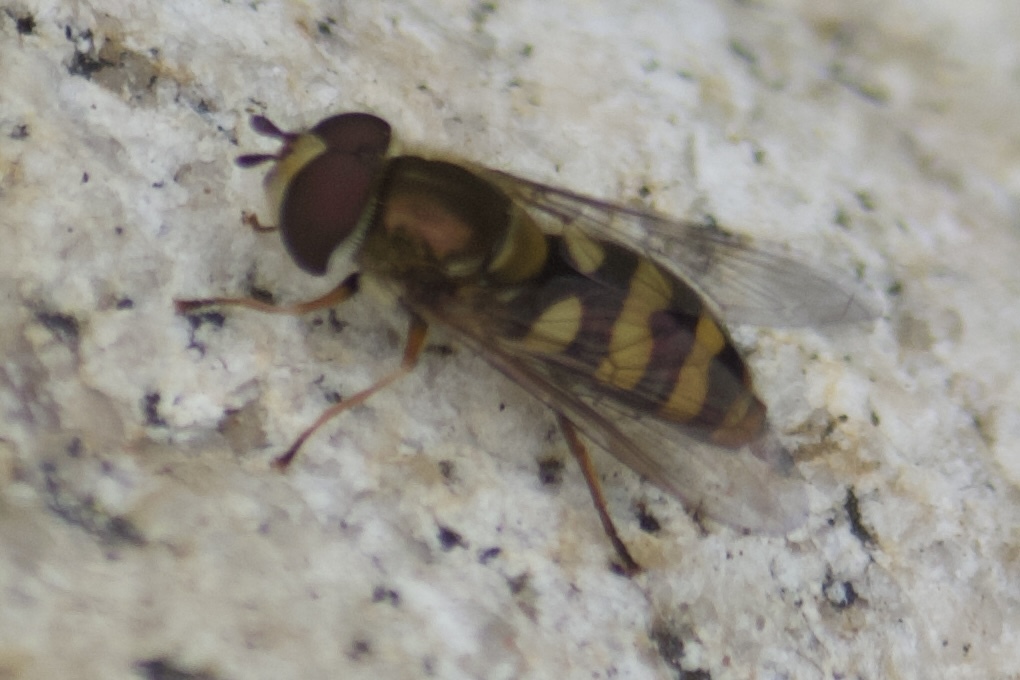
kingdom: Animalia
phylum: Arthropoda
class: Insecta
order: Diptera
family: Syrphidae
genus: Eupeodes
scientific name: Eupeodes fumipennis
